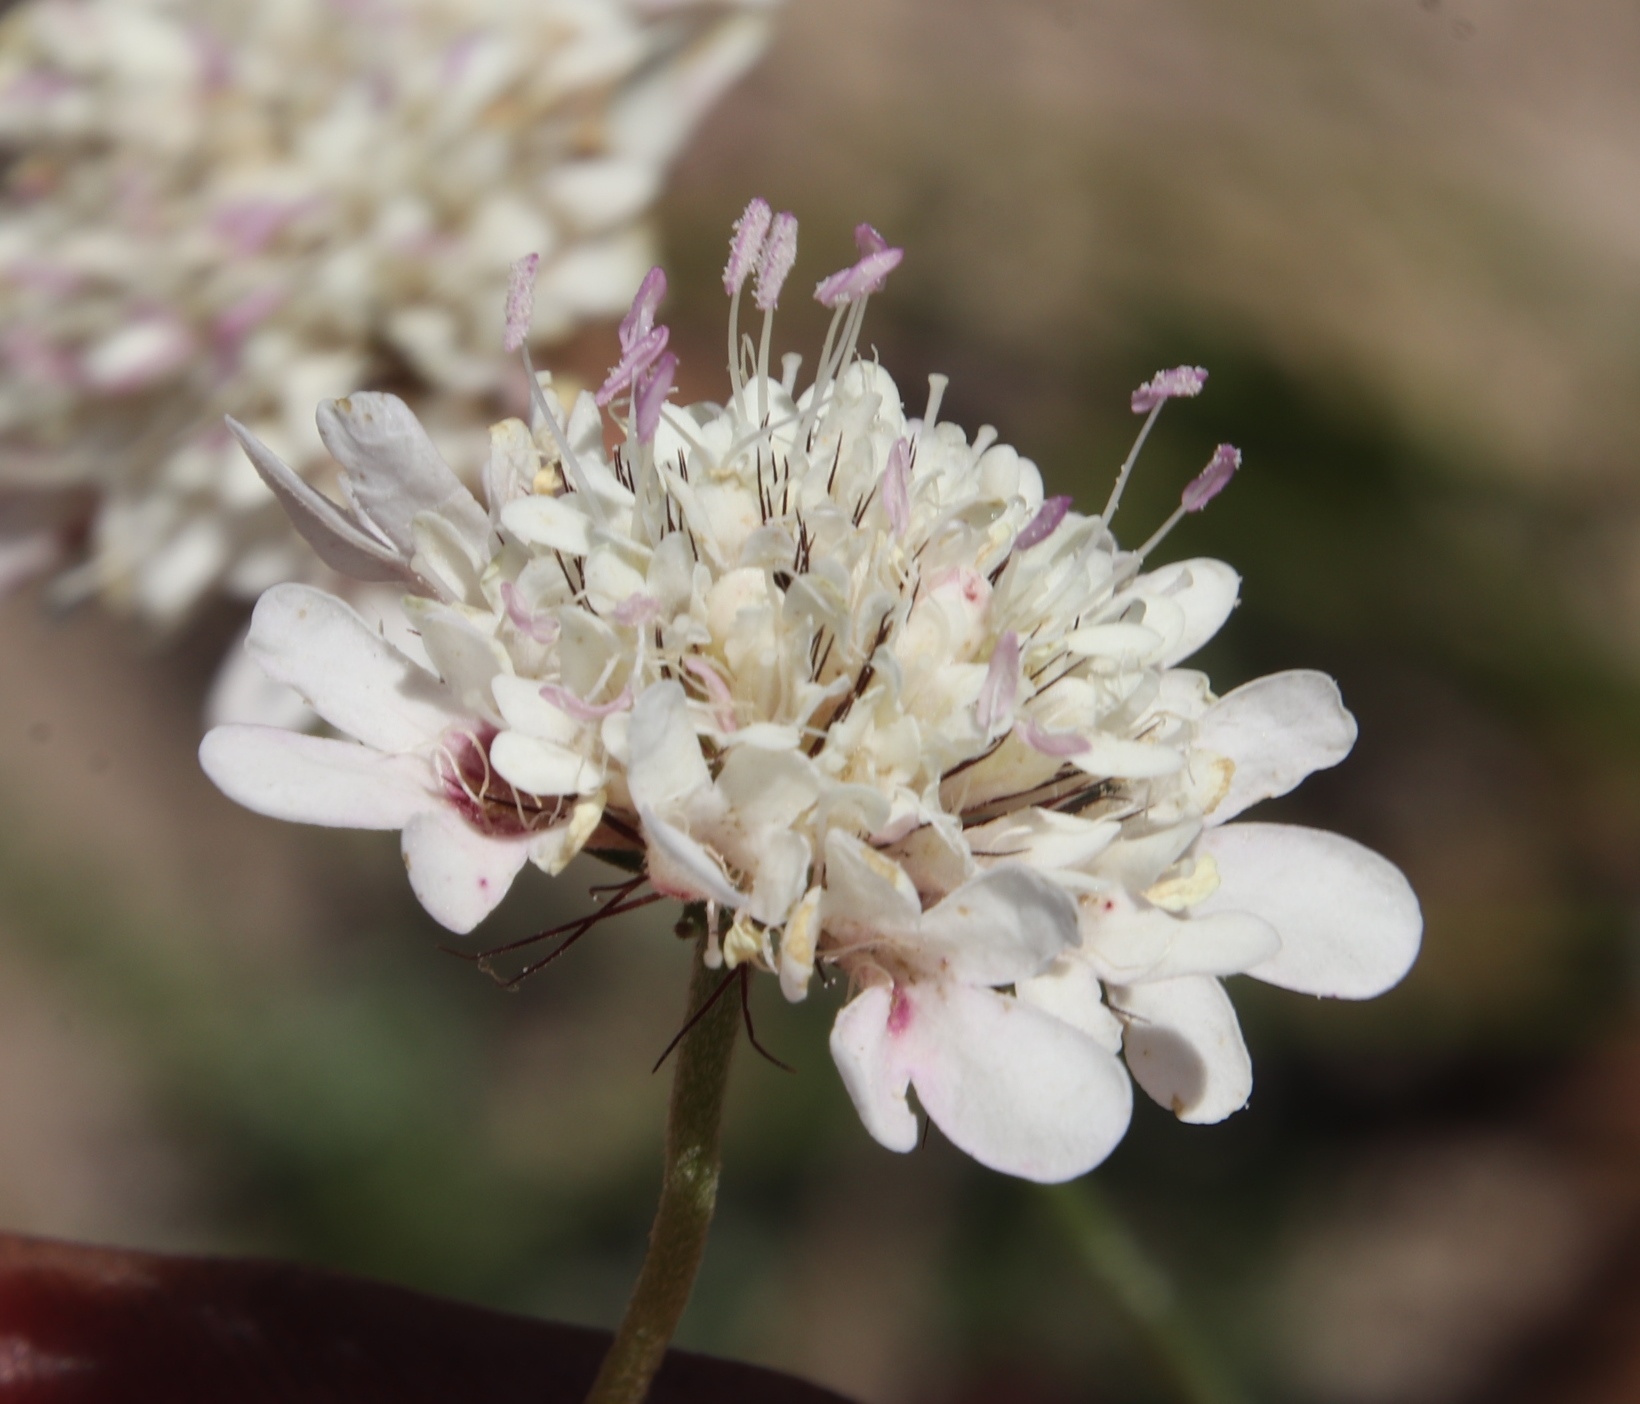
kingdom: Plantae
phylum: Tracheophyta
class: Magnoliopsida
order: Dipsacales
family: Caprifoliaceae
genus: Scabiosa
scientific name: Scabiosa columbaria
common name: Small scabious
